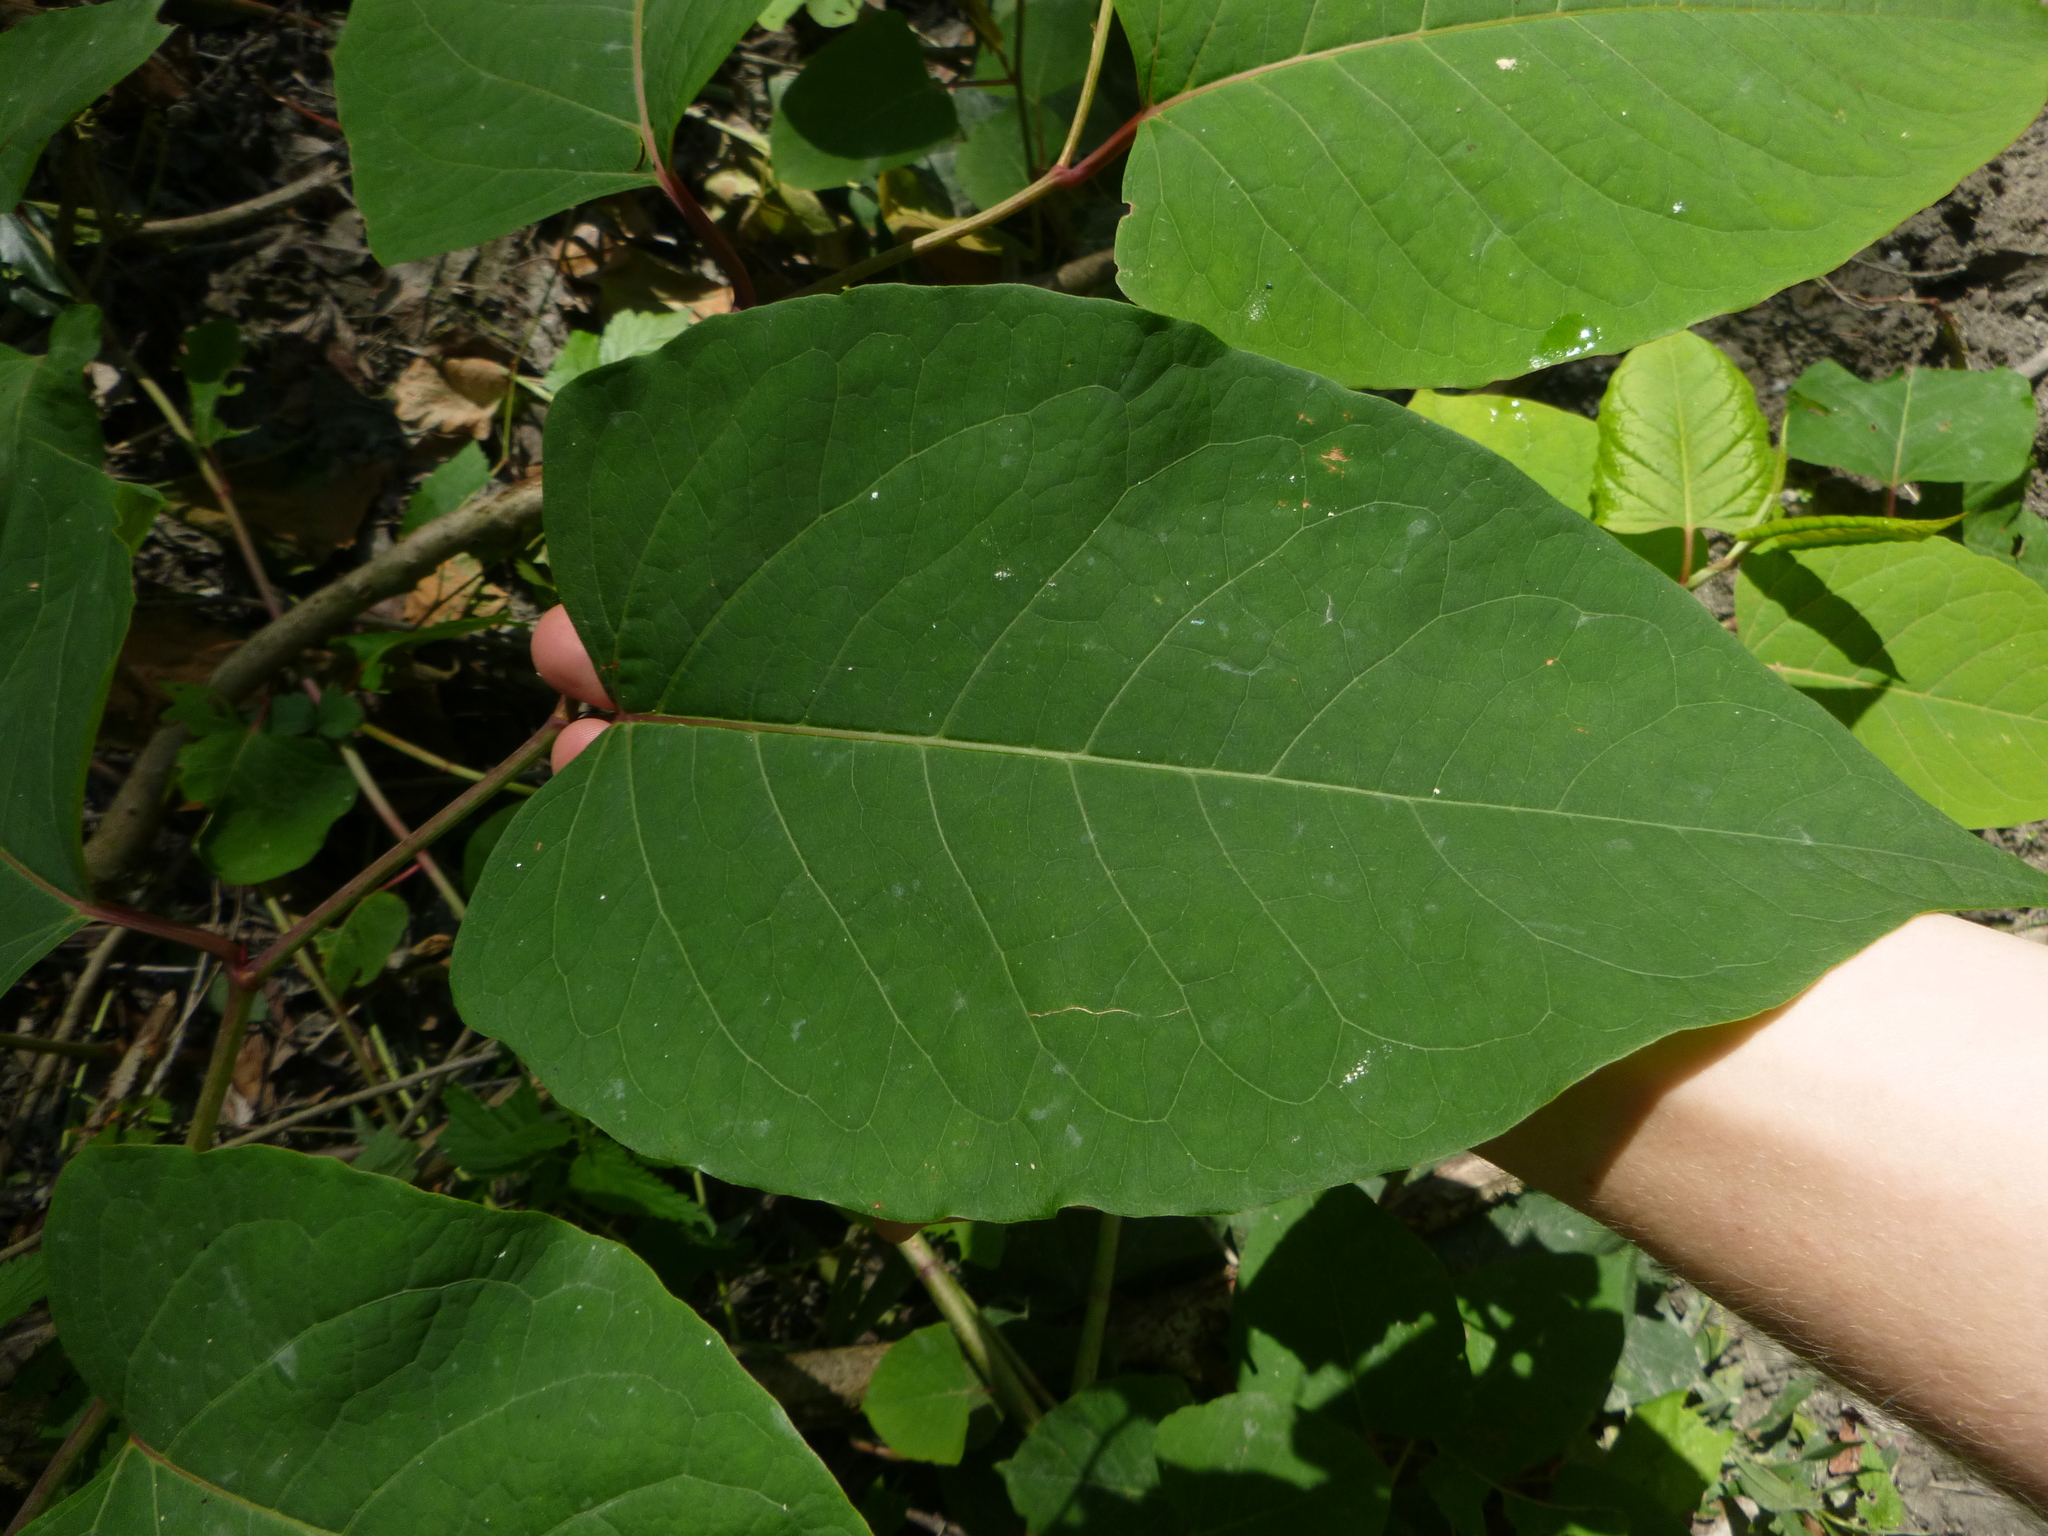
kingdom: Plantae
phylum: Tracheophyta
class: Magnoliopsida
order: Caryophyllales
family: Polygonaceae
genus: Reynoutria
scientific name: Reynoutria bohemica
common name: Bohemian knotweed
